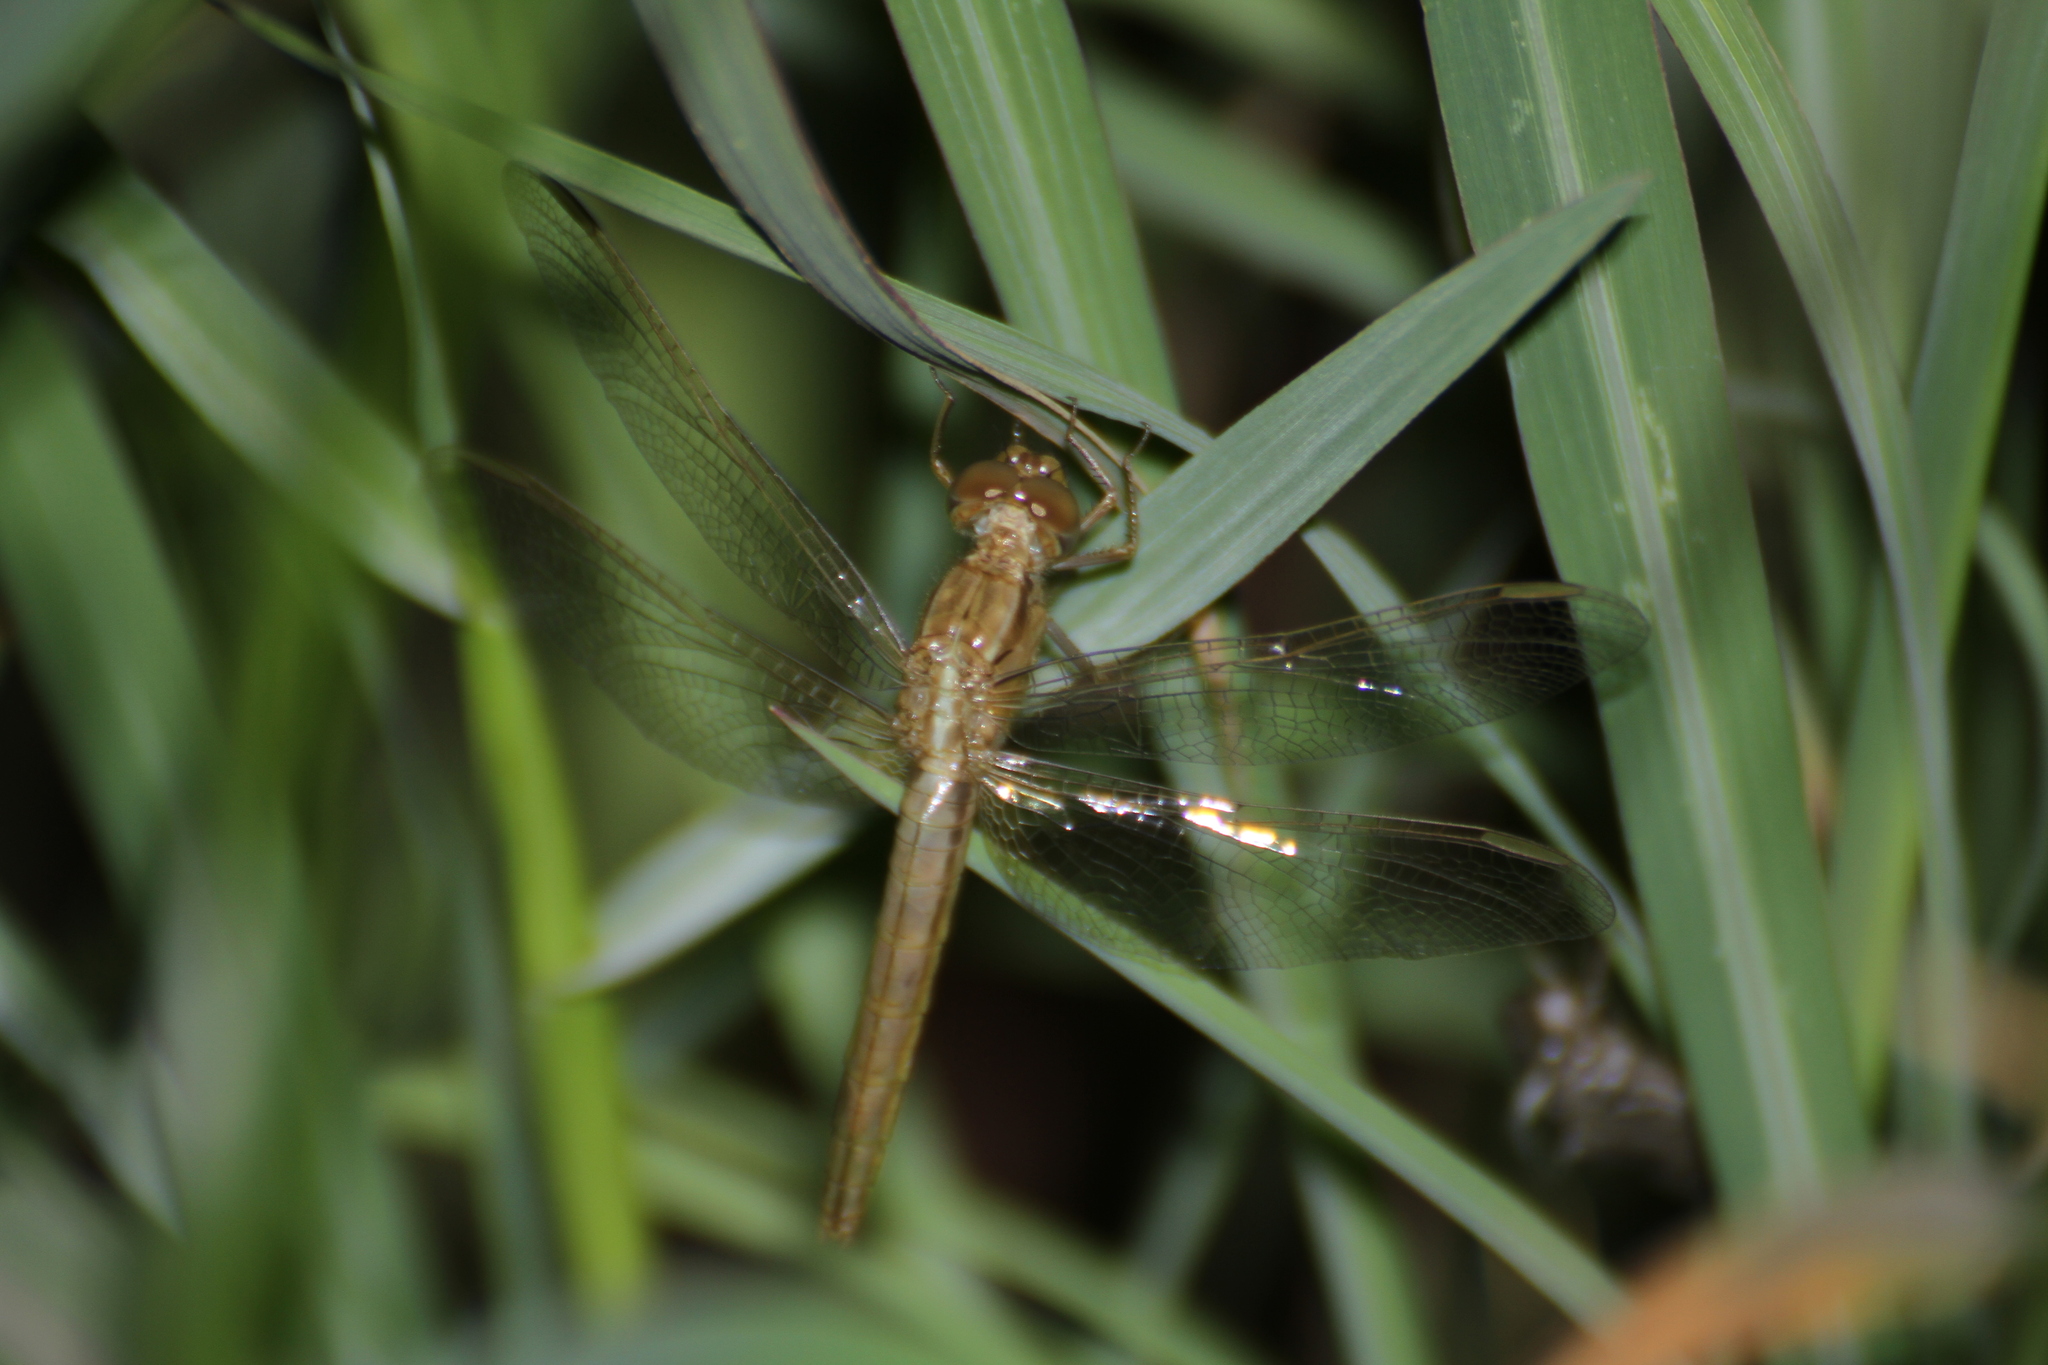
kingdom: Animalia
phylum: Arthropoda
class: Insecta
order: Odonata
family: Libellulidae
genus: Crocothemis
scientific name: Crocothemis erythraea
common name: Scarlet dragonfly
